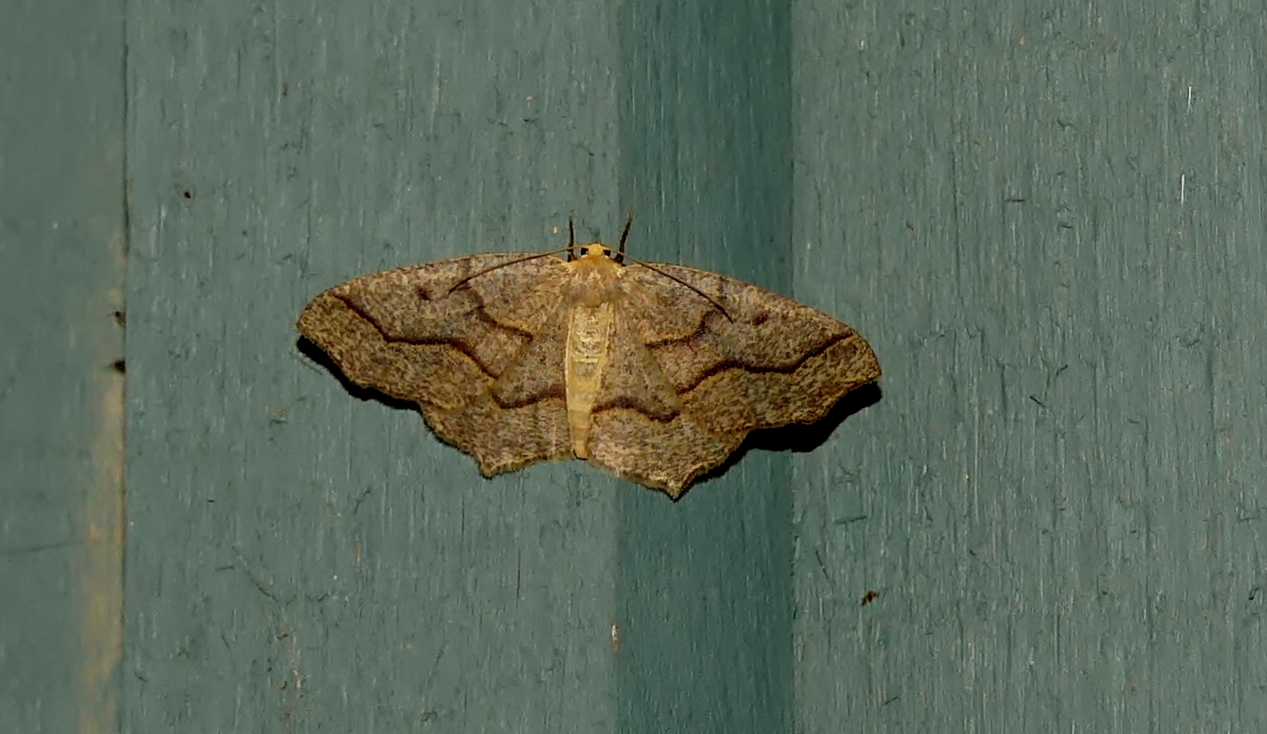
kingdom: Animalia
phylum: Arthropoda
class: Insecta
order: Lepidoptera
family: Geometridae
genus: Lambdina
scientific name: Lambdina fiscellaria
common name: Hemlock looper
